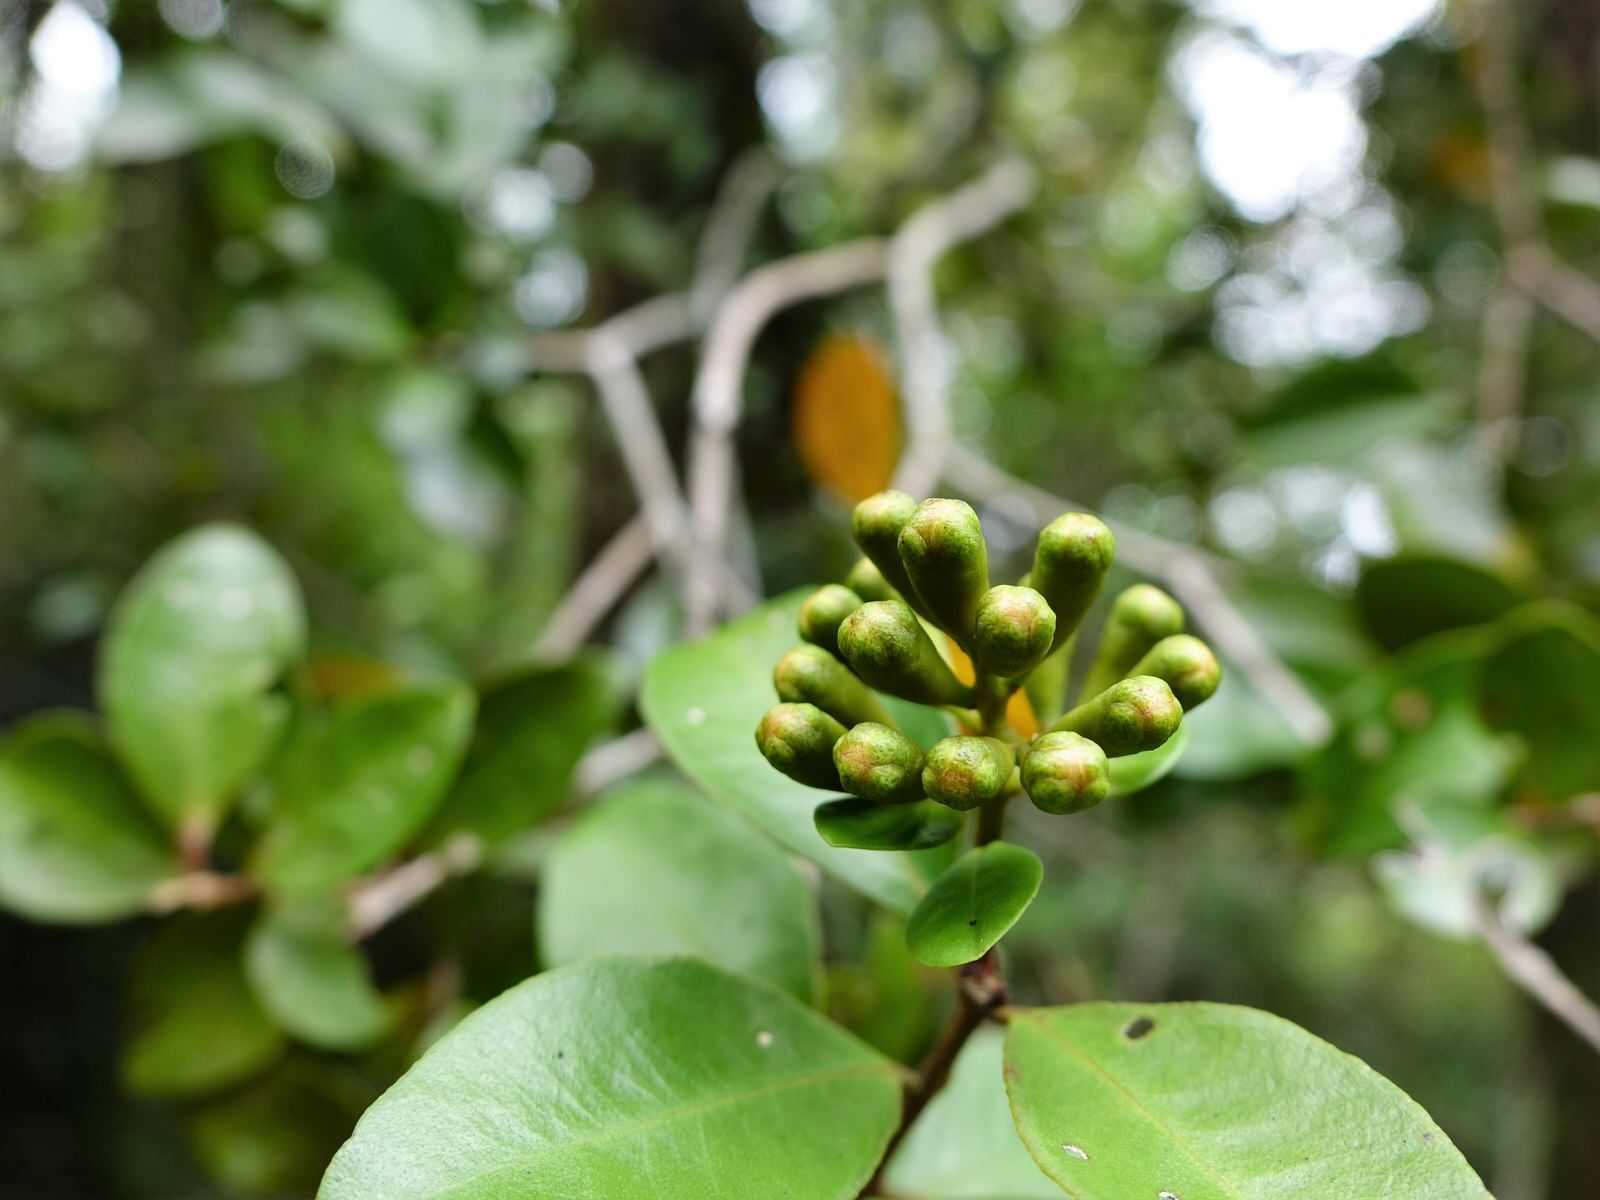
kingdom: Plantae
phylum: Tracheophyta
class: Magnoliopsida
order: Myrtales
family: Myrtaceae
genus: Metrosideros
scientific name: Metrosideros fulgens
